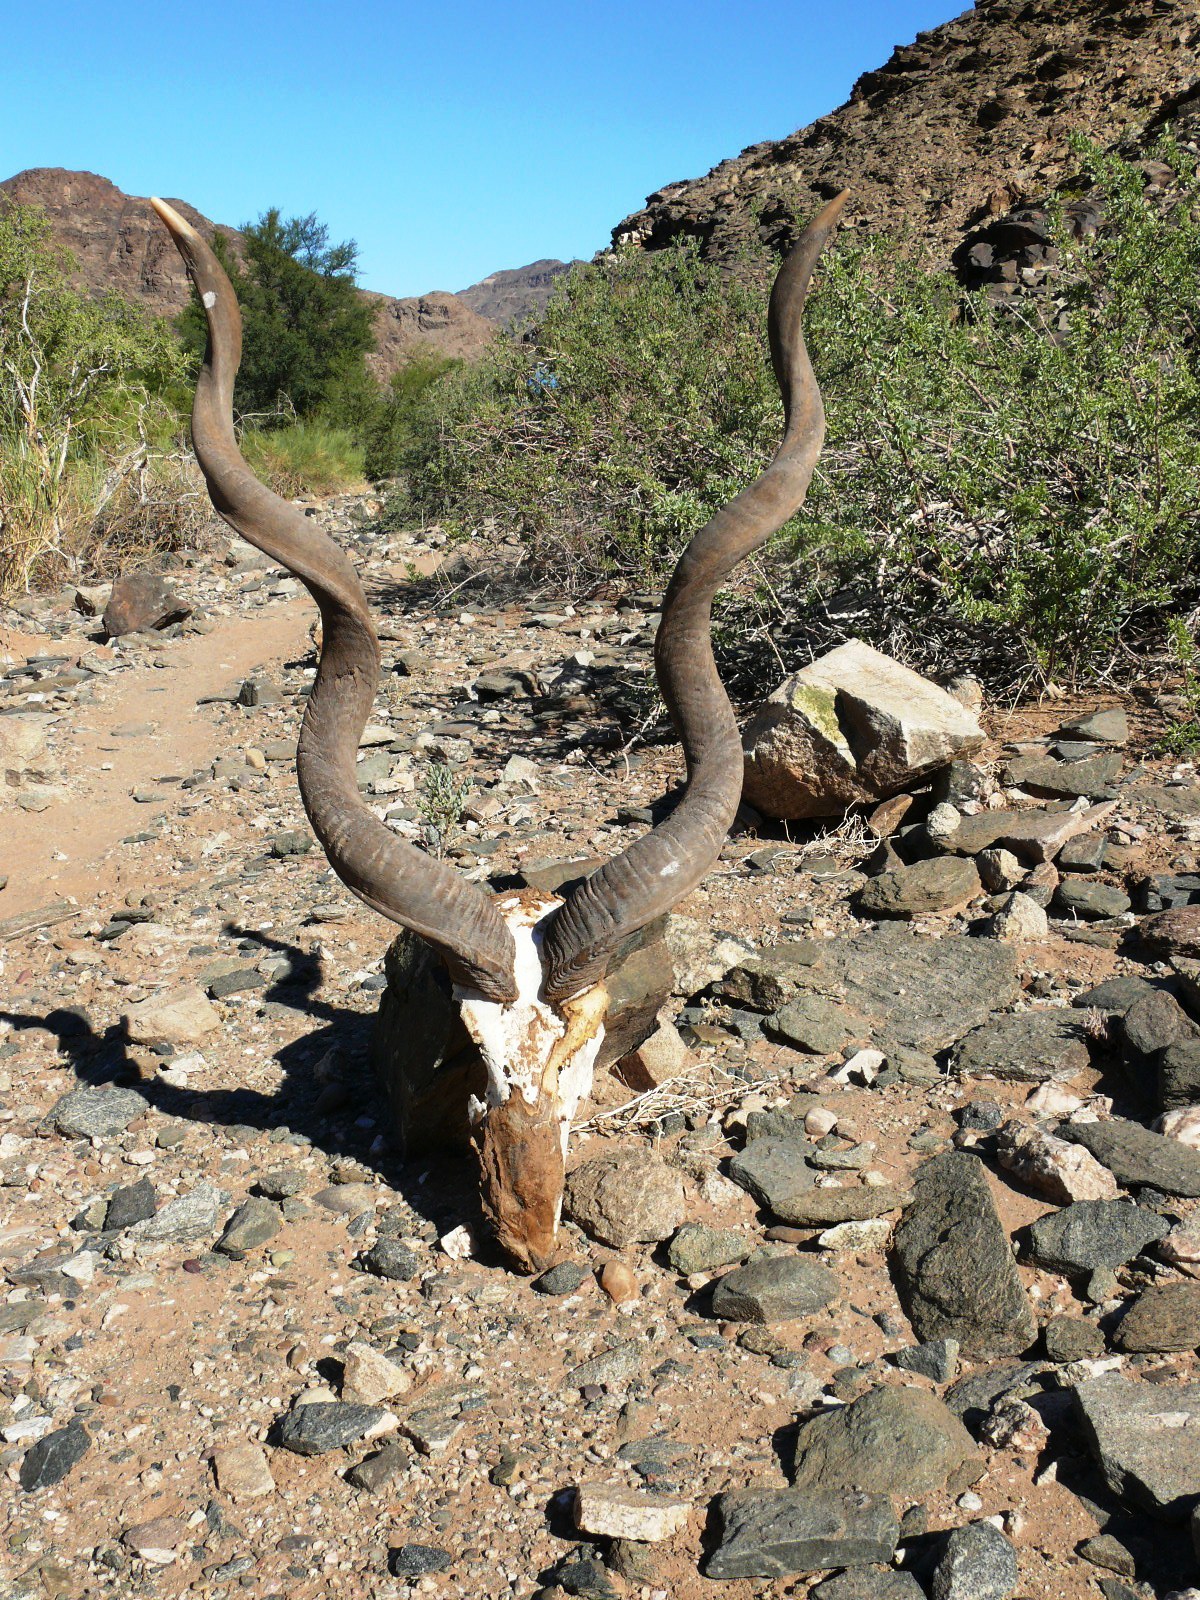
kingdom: Animalia
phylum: Chordata
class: Mammalia
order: Artiodactyla
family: Bovidae
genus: Tragelaphus
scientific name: Tragelaphus strepsiceros
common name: Greater kudu
